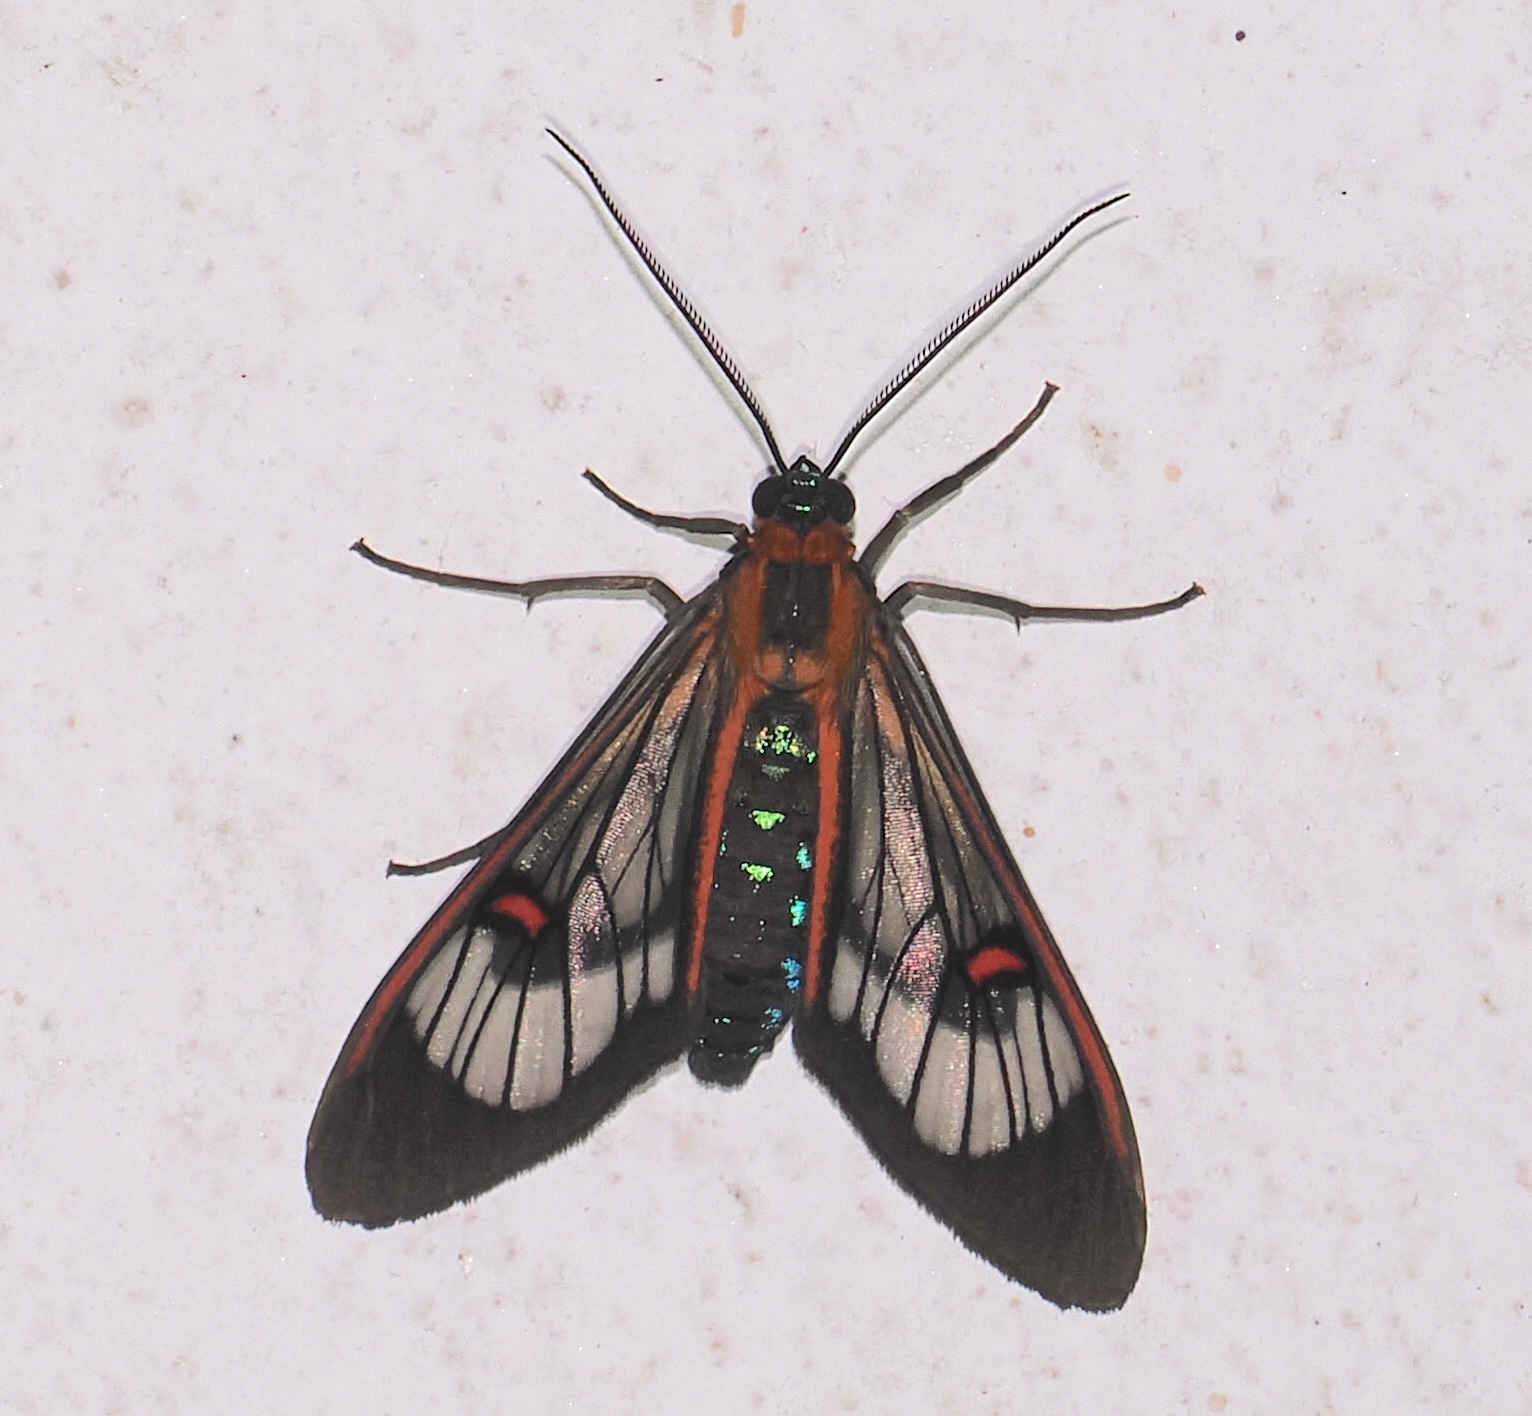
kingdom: Animalia
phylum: Arthropoda
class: Insecta
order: Lepidoptera
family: Erebidae
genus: Lepidoneiva
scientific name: Lepidoneiva erubescens
